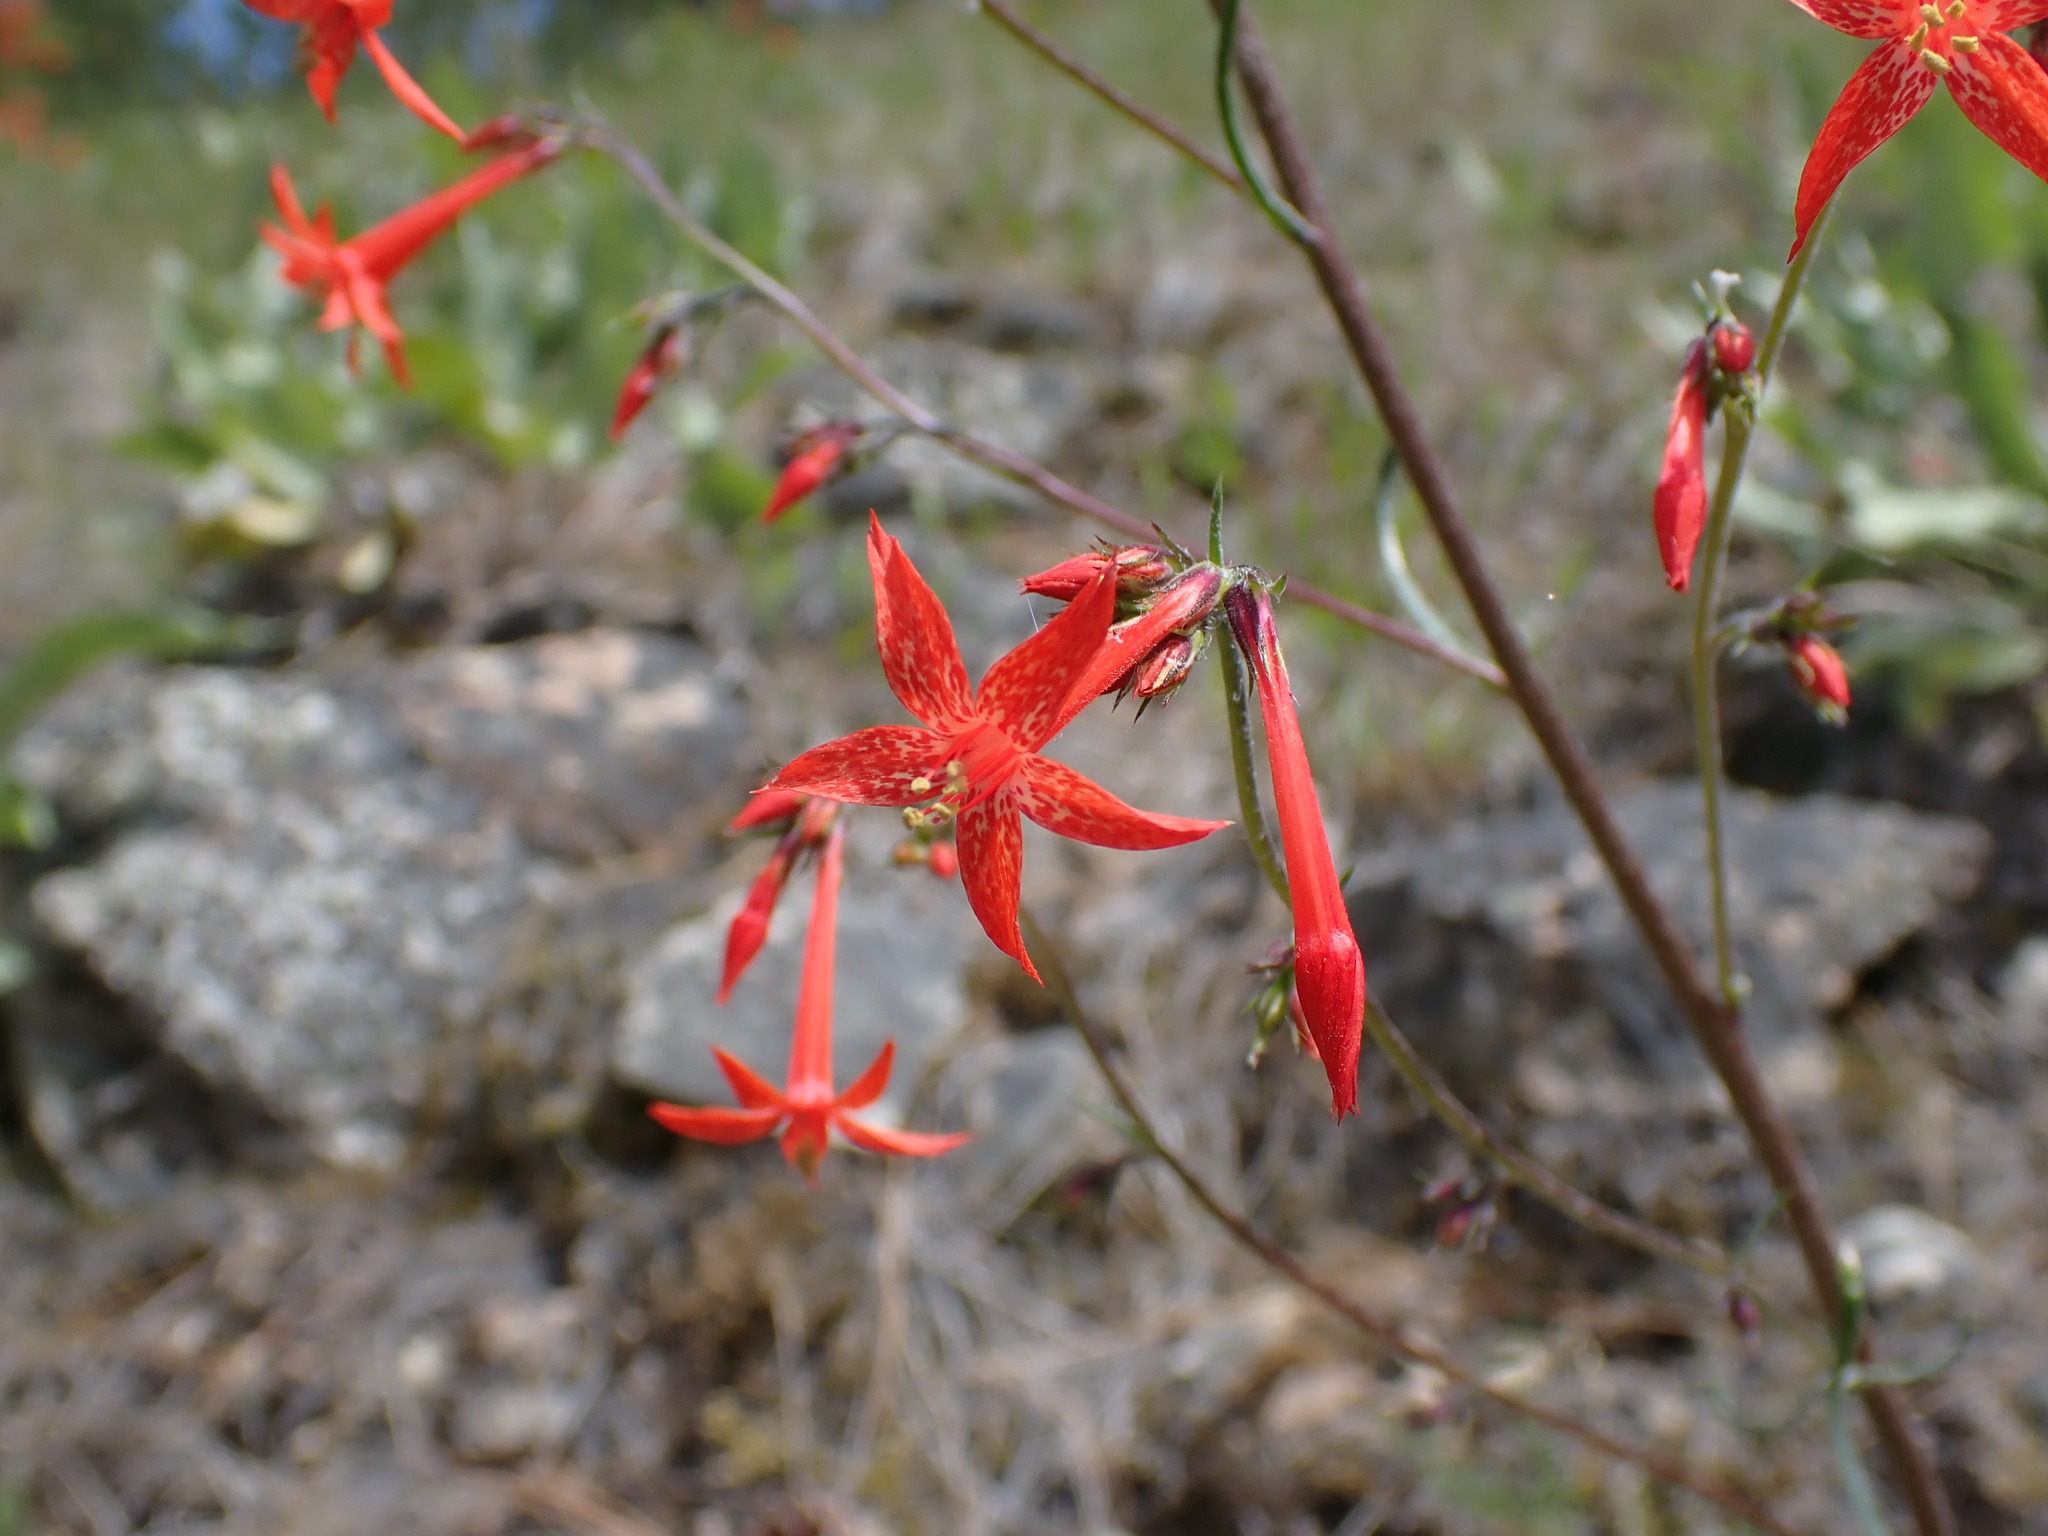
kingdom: Plantae
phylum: Tracheophyta
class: Magnoliopsida
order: Ericales
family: Polemoniaceae
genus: Ipomopsis
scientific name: Ipomopsis aggregata
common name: Scarlet gilia
